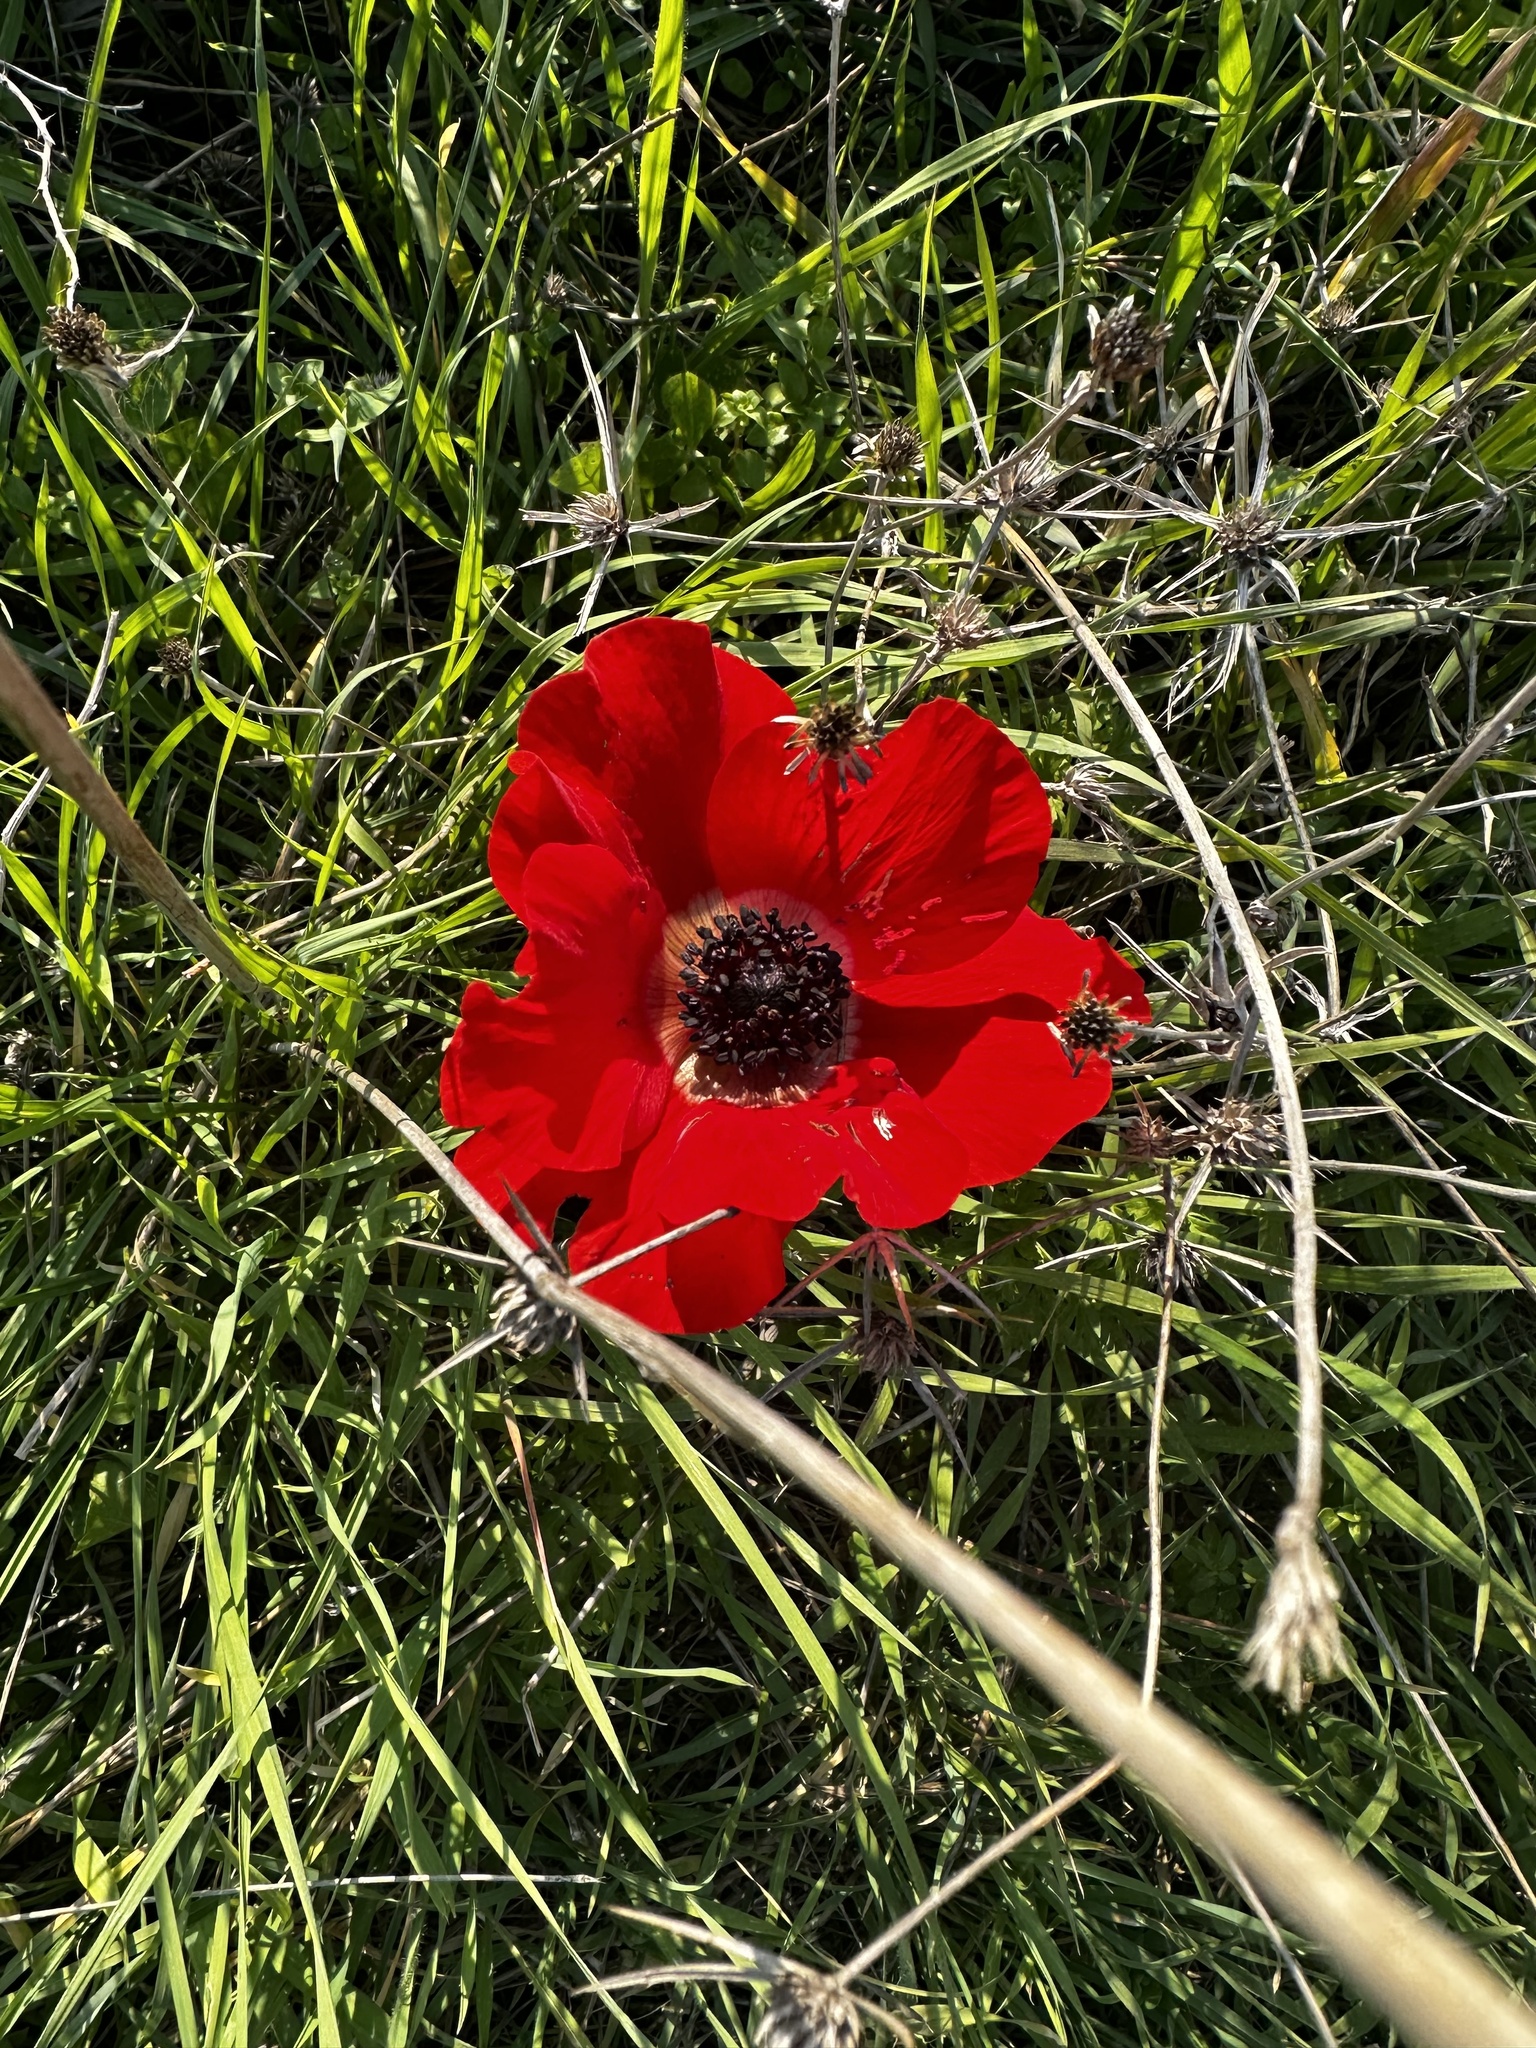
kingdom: Plantae
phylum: Tracheophyta
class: Magnoliopsida
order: Ranunculales
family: Ranunculaceae
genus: Anemone
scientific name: Anemone coronaria
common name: Poppy anemone
